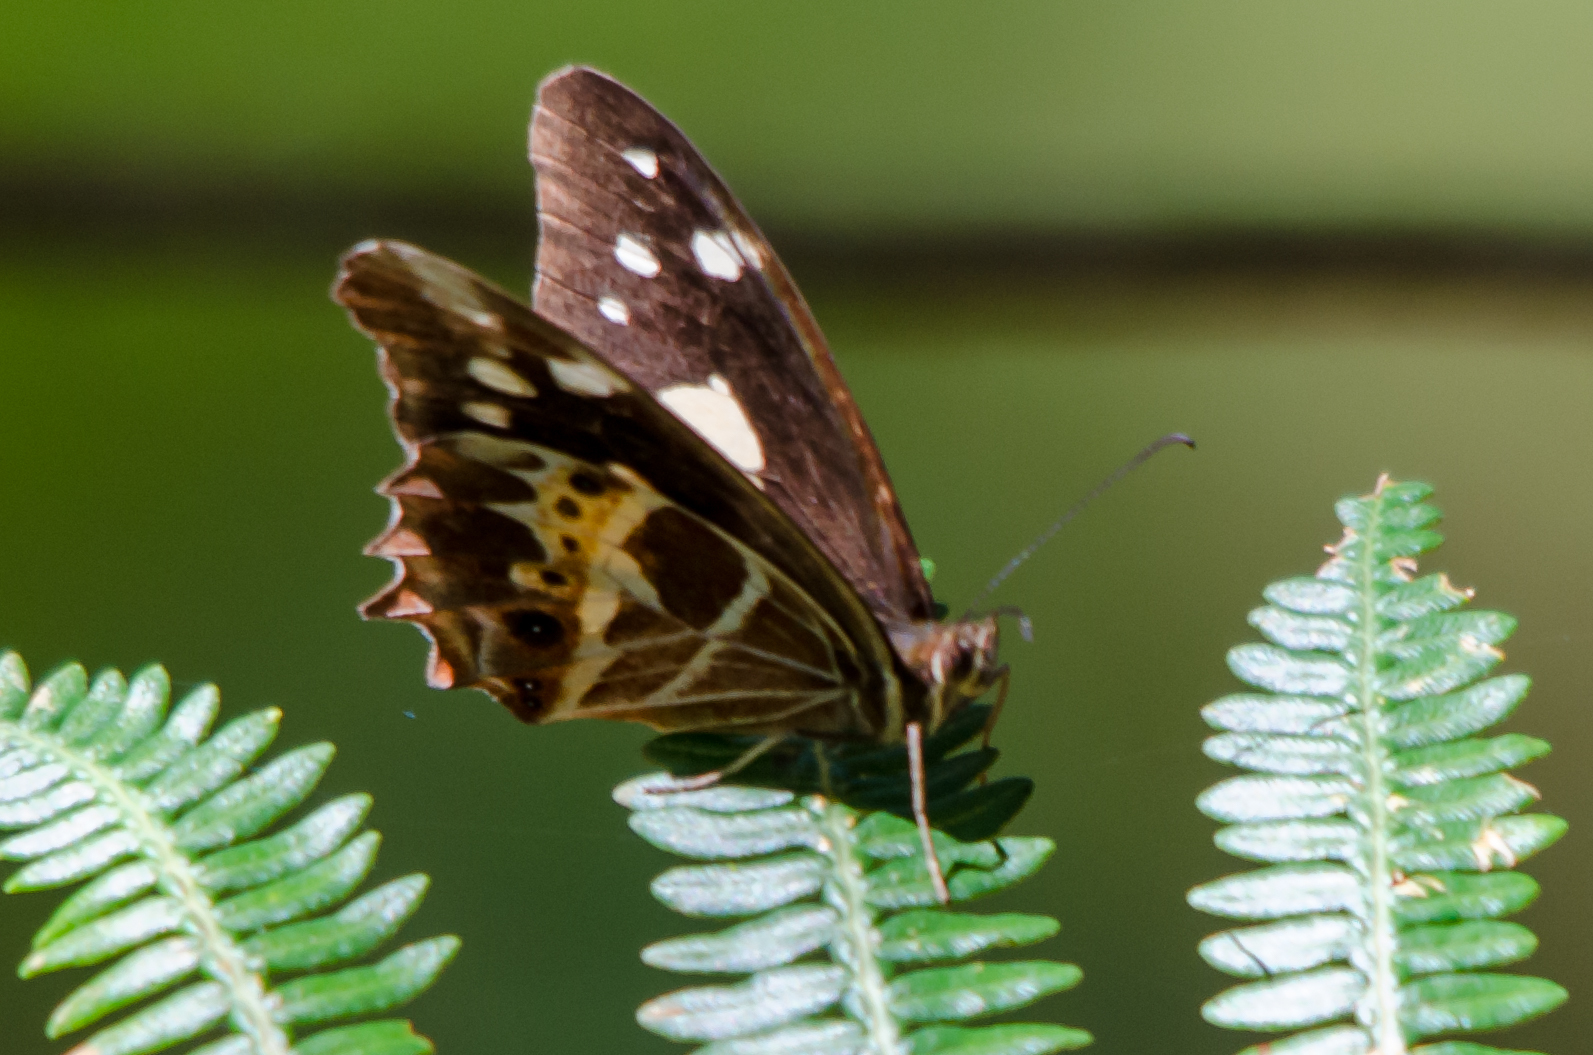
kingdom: Animalia
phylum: Arthropoda
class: Insecta
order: Lepidoptera
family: Nymphalidae
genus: Oxeoschistus
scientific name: Oxeoschistus tauropolis
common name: Starred oxeo
